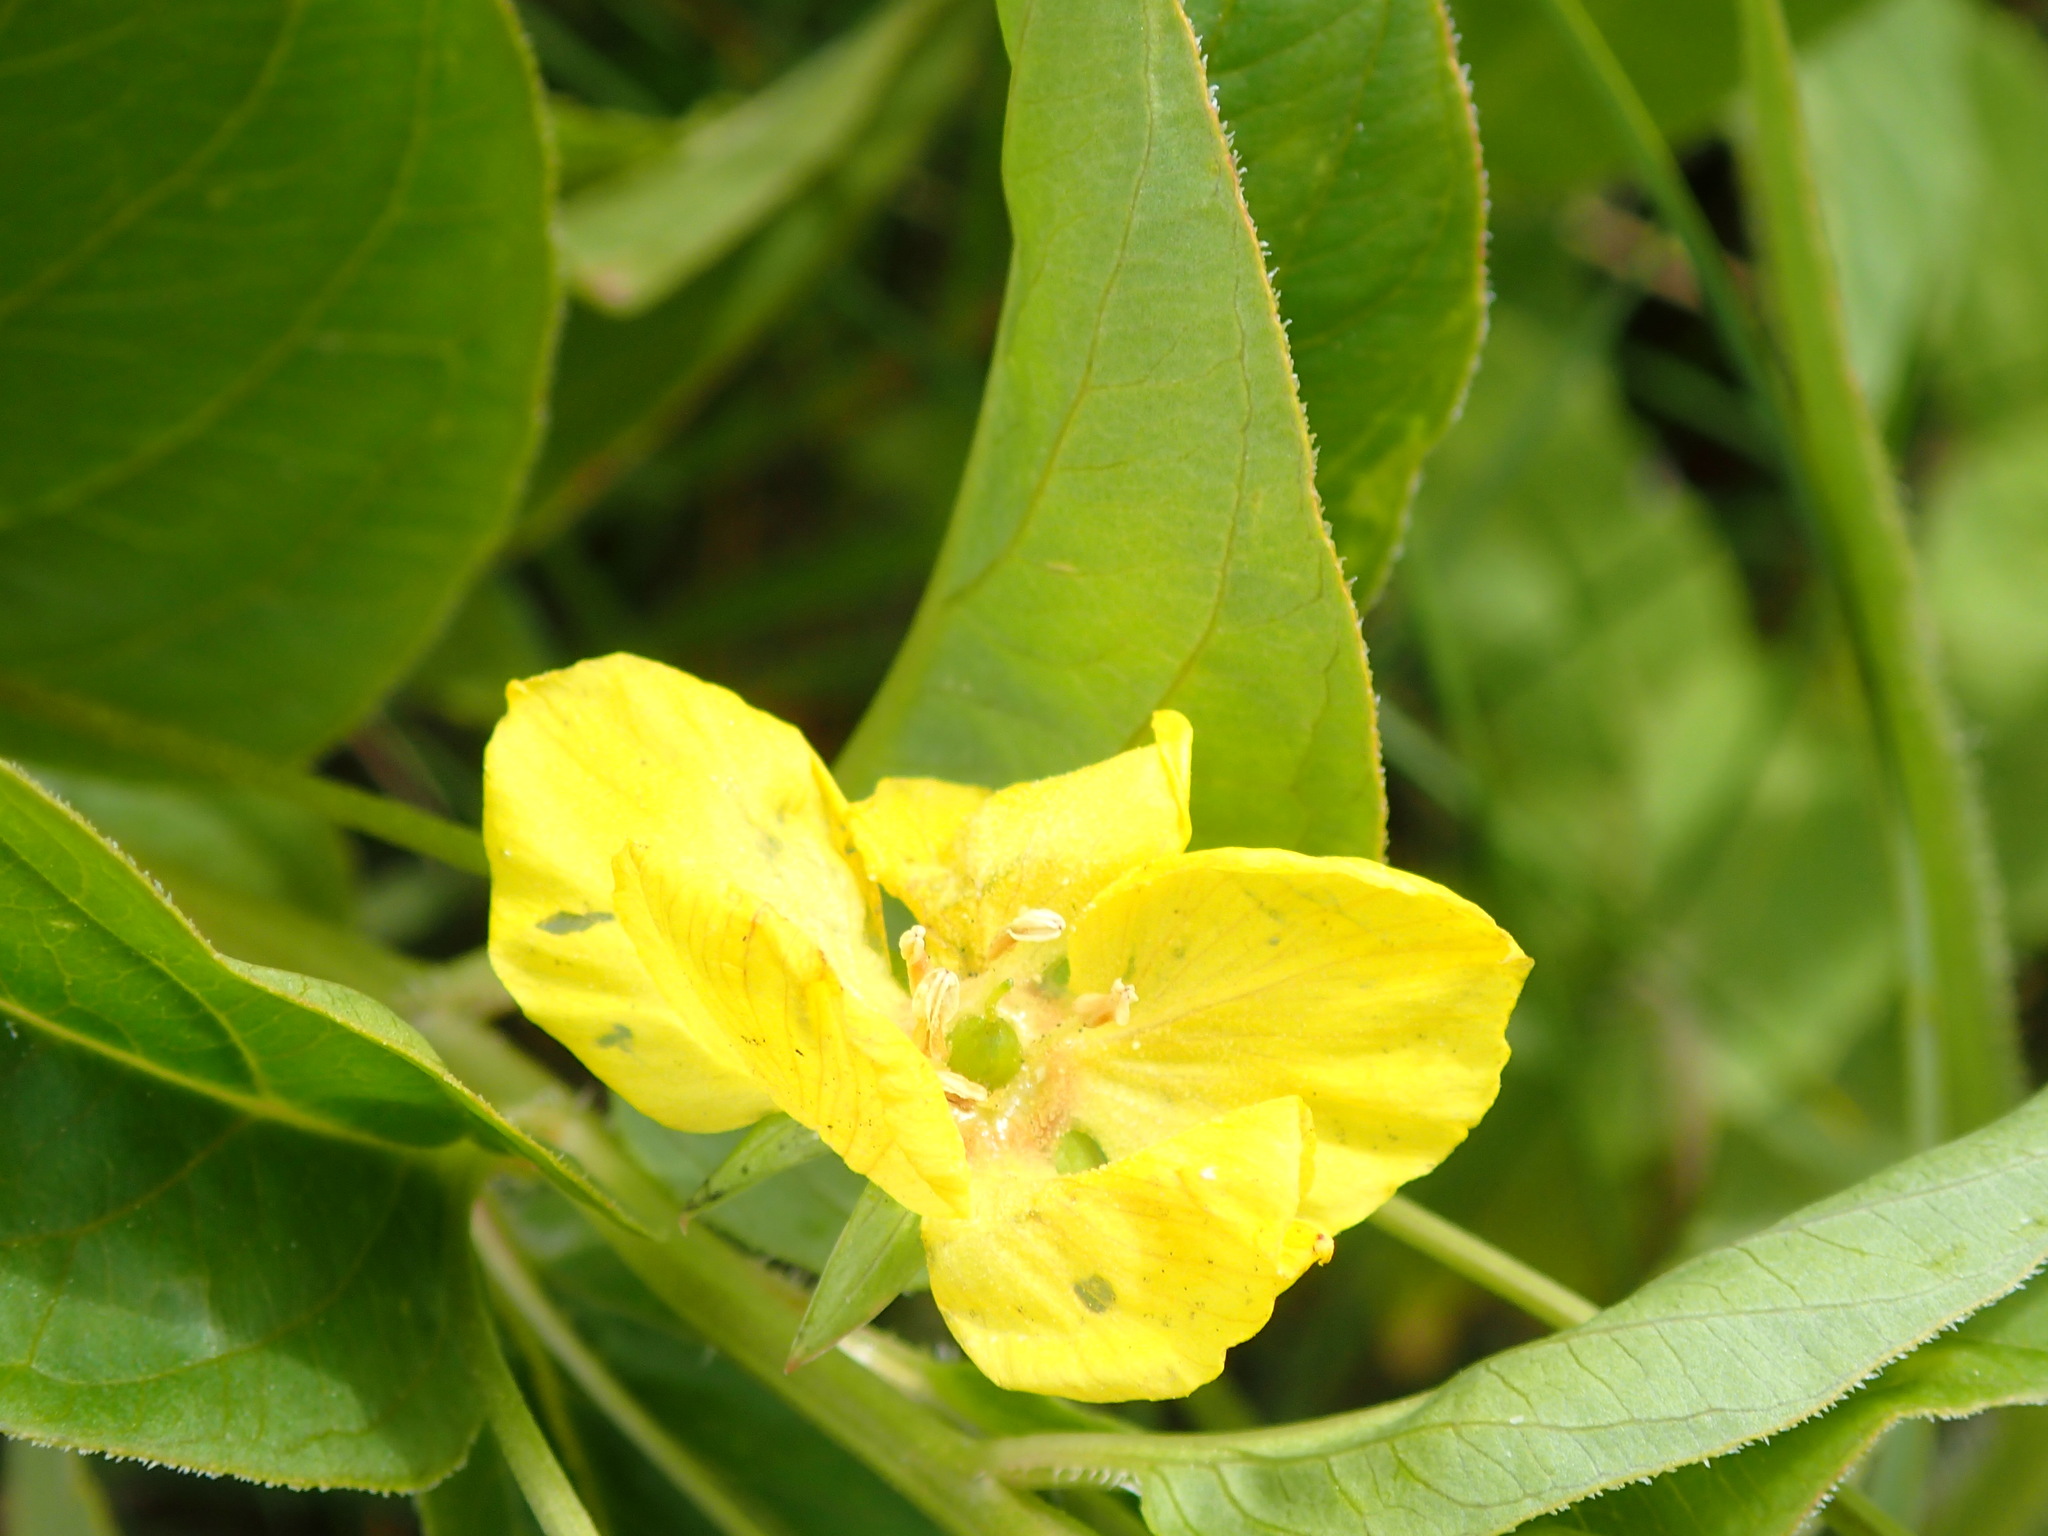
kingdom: Plantae
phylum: Tracheophyta
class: Magnoliopsida
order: Ericales
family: Primulaceae
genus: Lysimachia
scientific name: Lysimachia ciliata
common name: Fringed loosestrife
